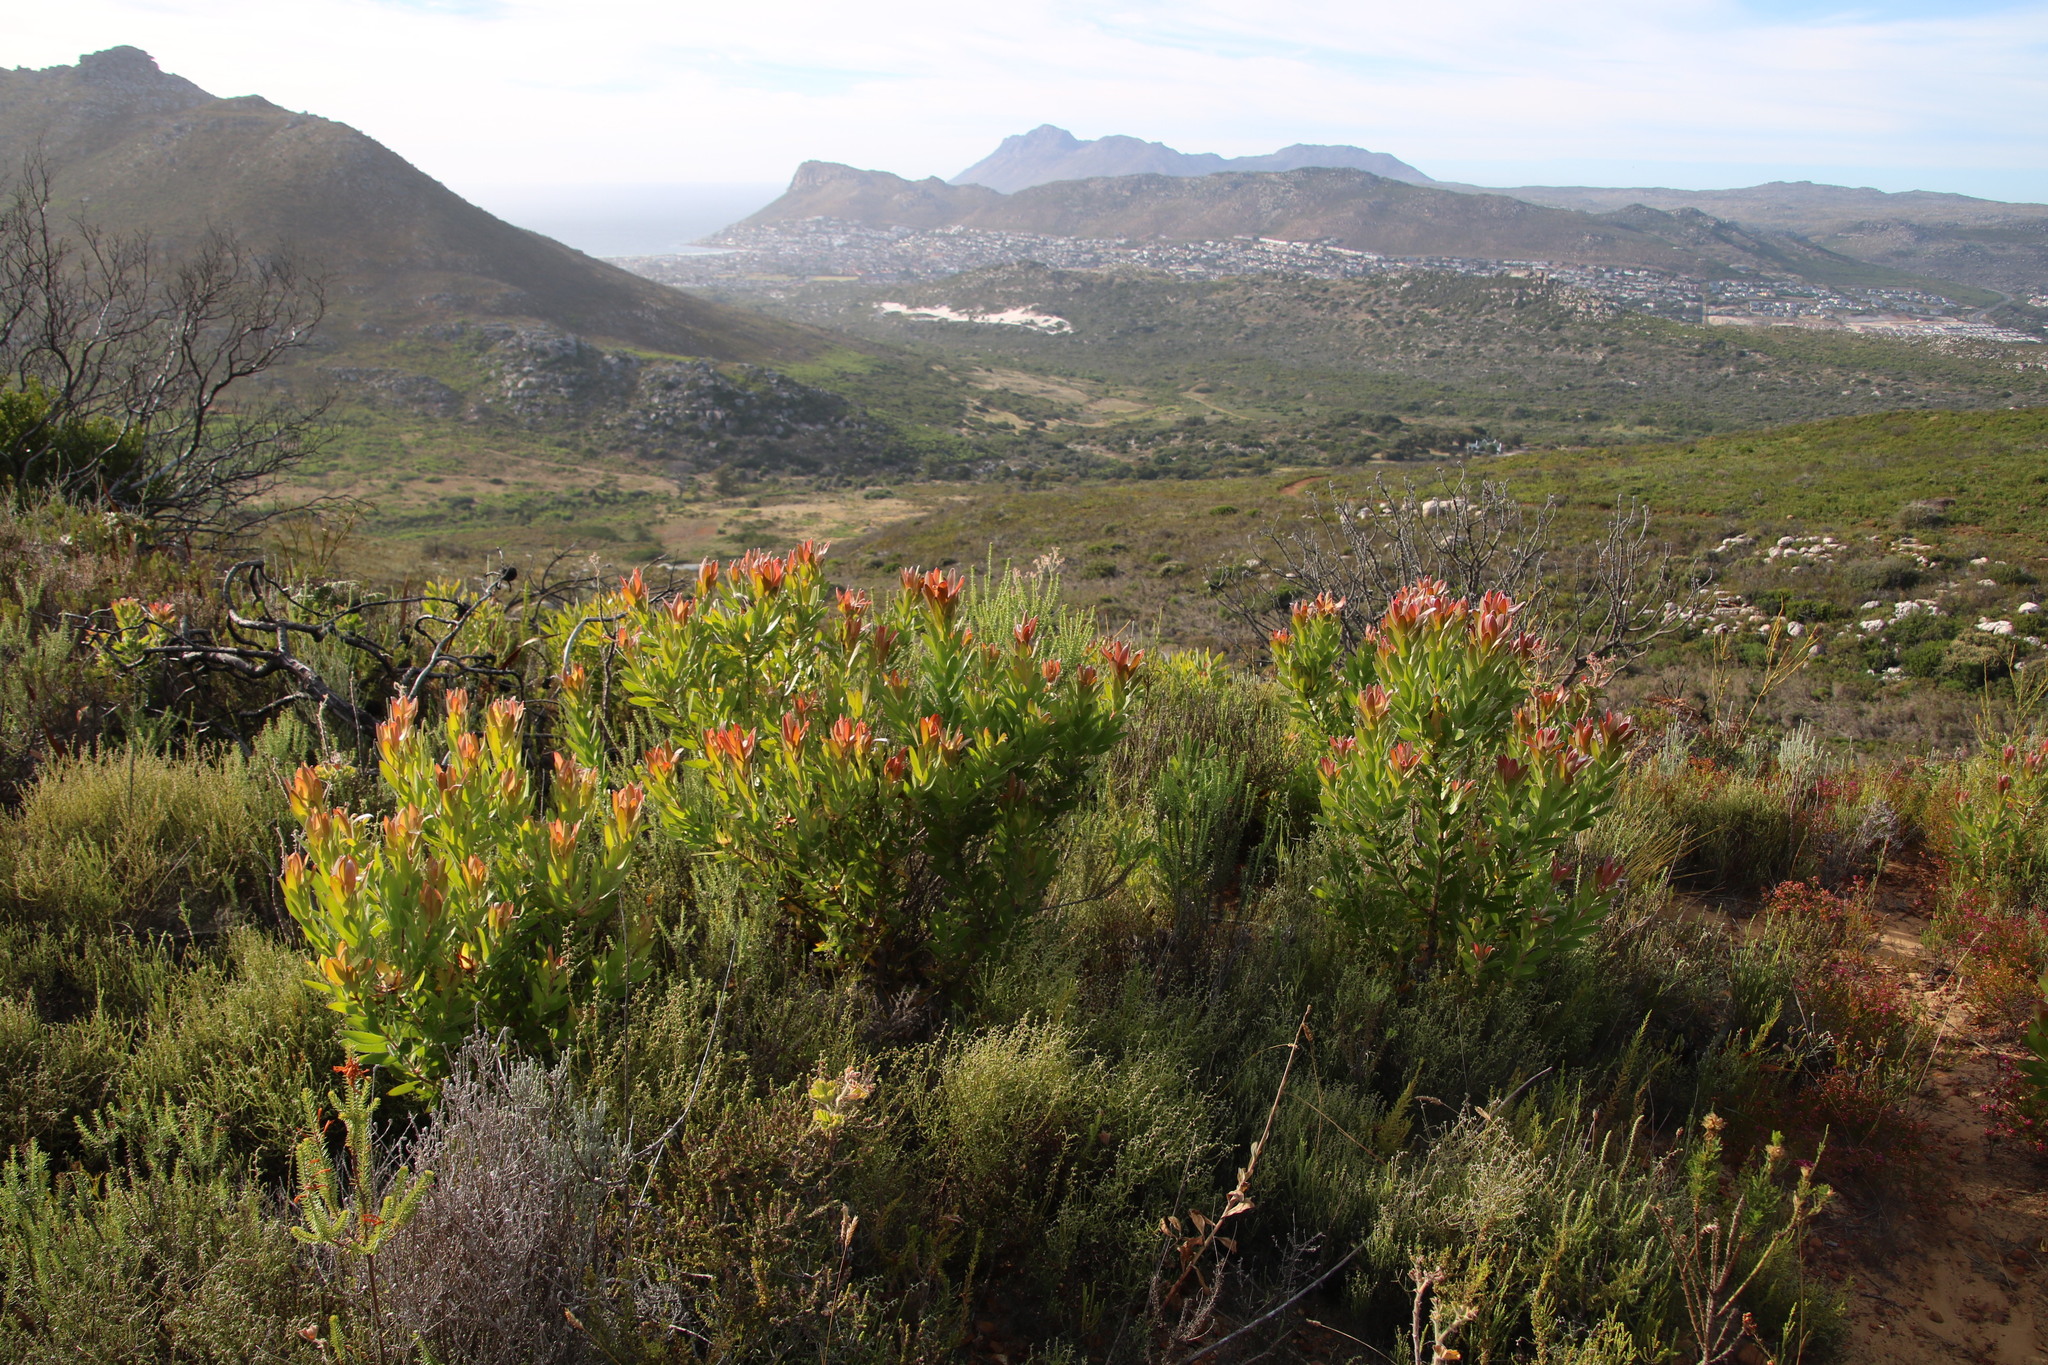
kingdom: Plantae
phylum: Tracheophyta
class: Magnoliopsida
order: Proteales
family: Proteaceae
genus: Leucadendron
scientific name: Leucadendron laureolum
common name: Golden sunshinebush
